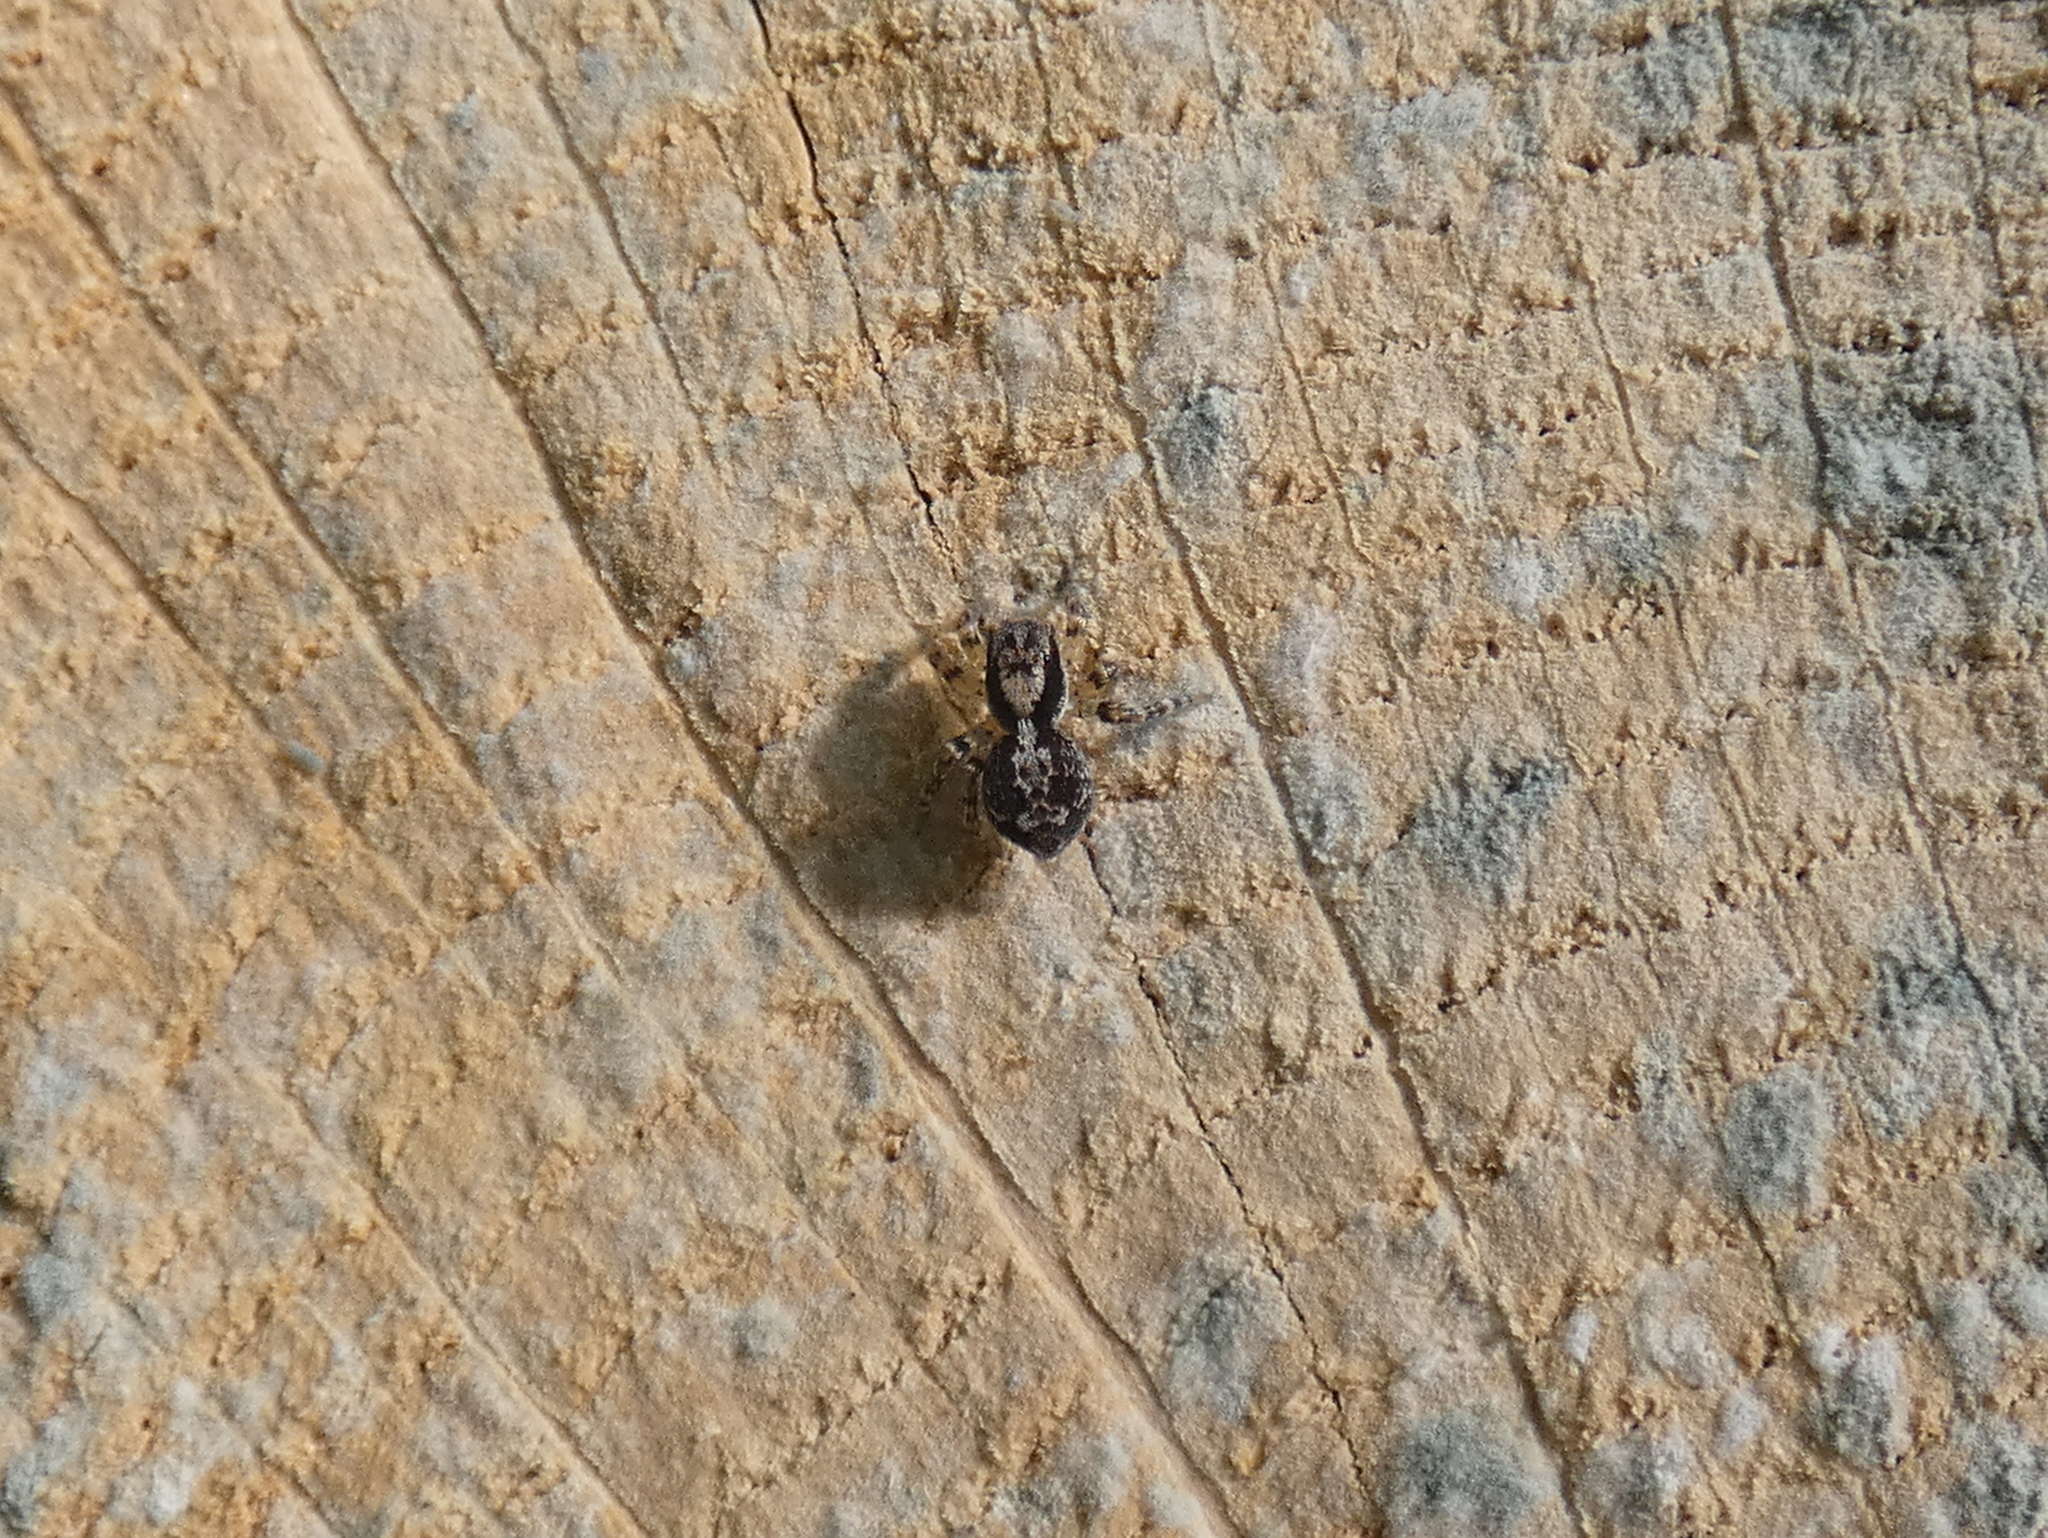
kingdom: Animalia
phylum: Arthropoda
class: Arachnida
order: Araneae
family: Salticidae
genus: Naphrys
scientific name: Naphrys pulex
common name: Flea jumping spider
